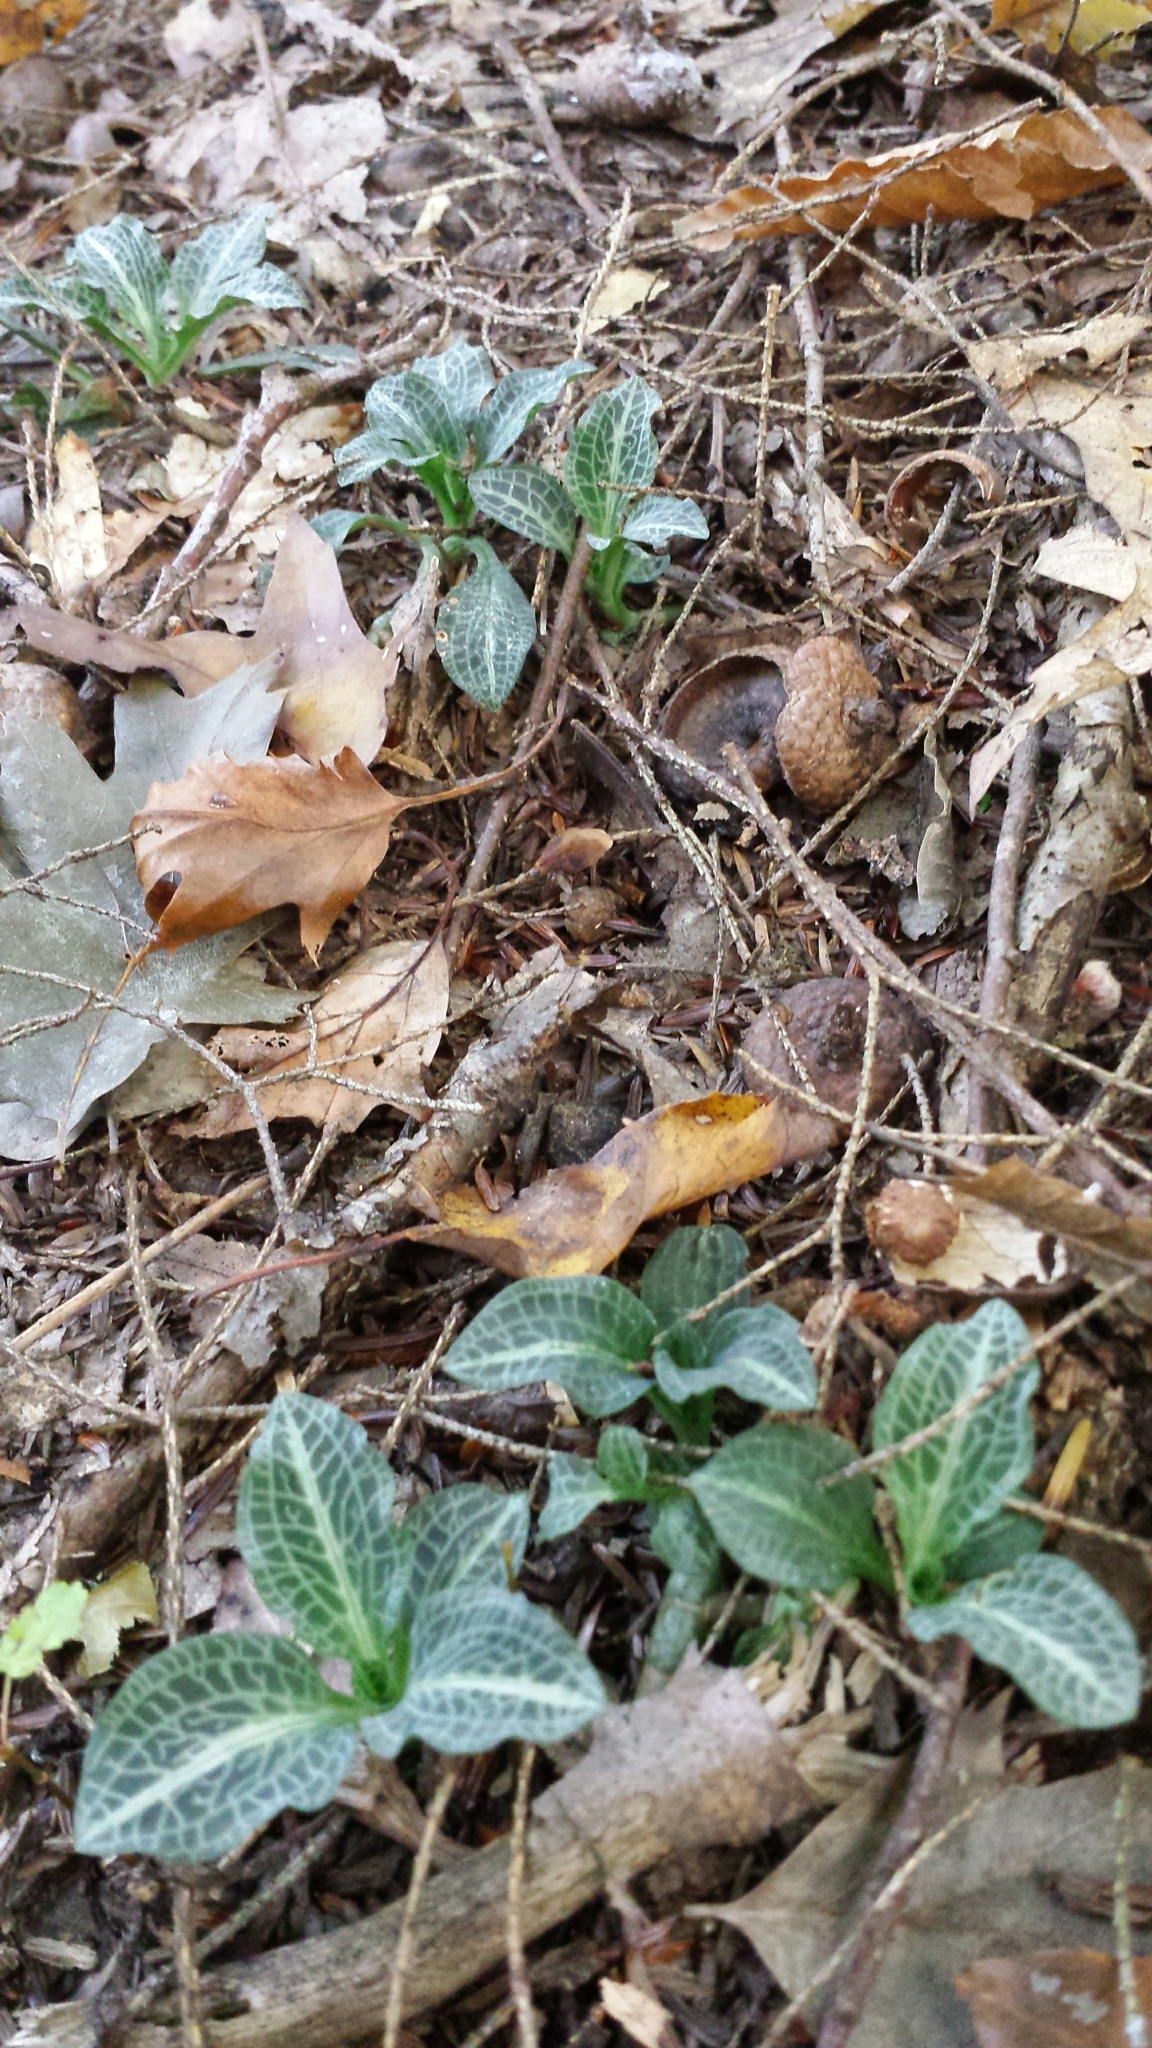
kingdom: Plantae
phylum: Tracheophyta
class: Liliopsida
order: Asparagales
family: Orchidaceae
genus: Goodyera
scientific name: Goodyera pubescens
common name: Downy rattlesnake-plantain
